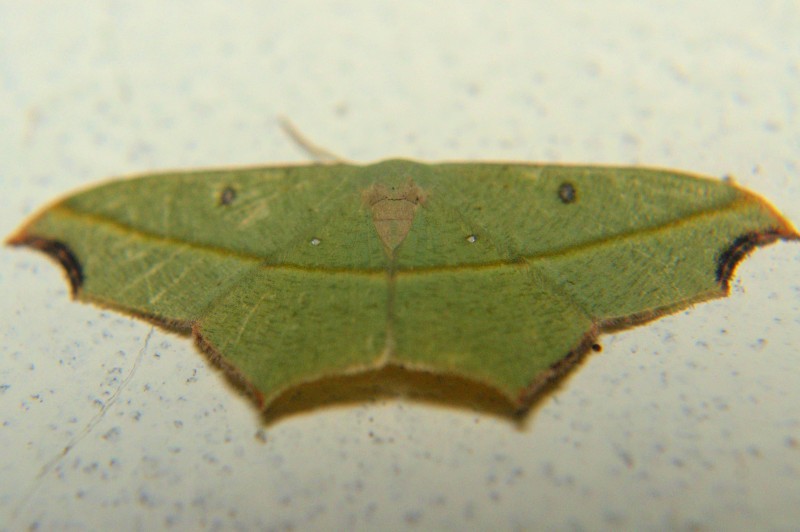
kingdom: Animalia
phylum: Arthropoda
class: Insecta
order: Lepidoptera
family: Geometridae
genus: Traminda
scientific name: Traminda aventiaria
